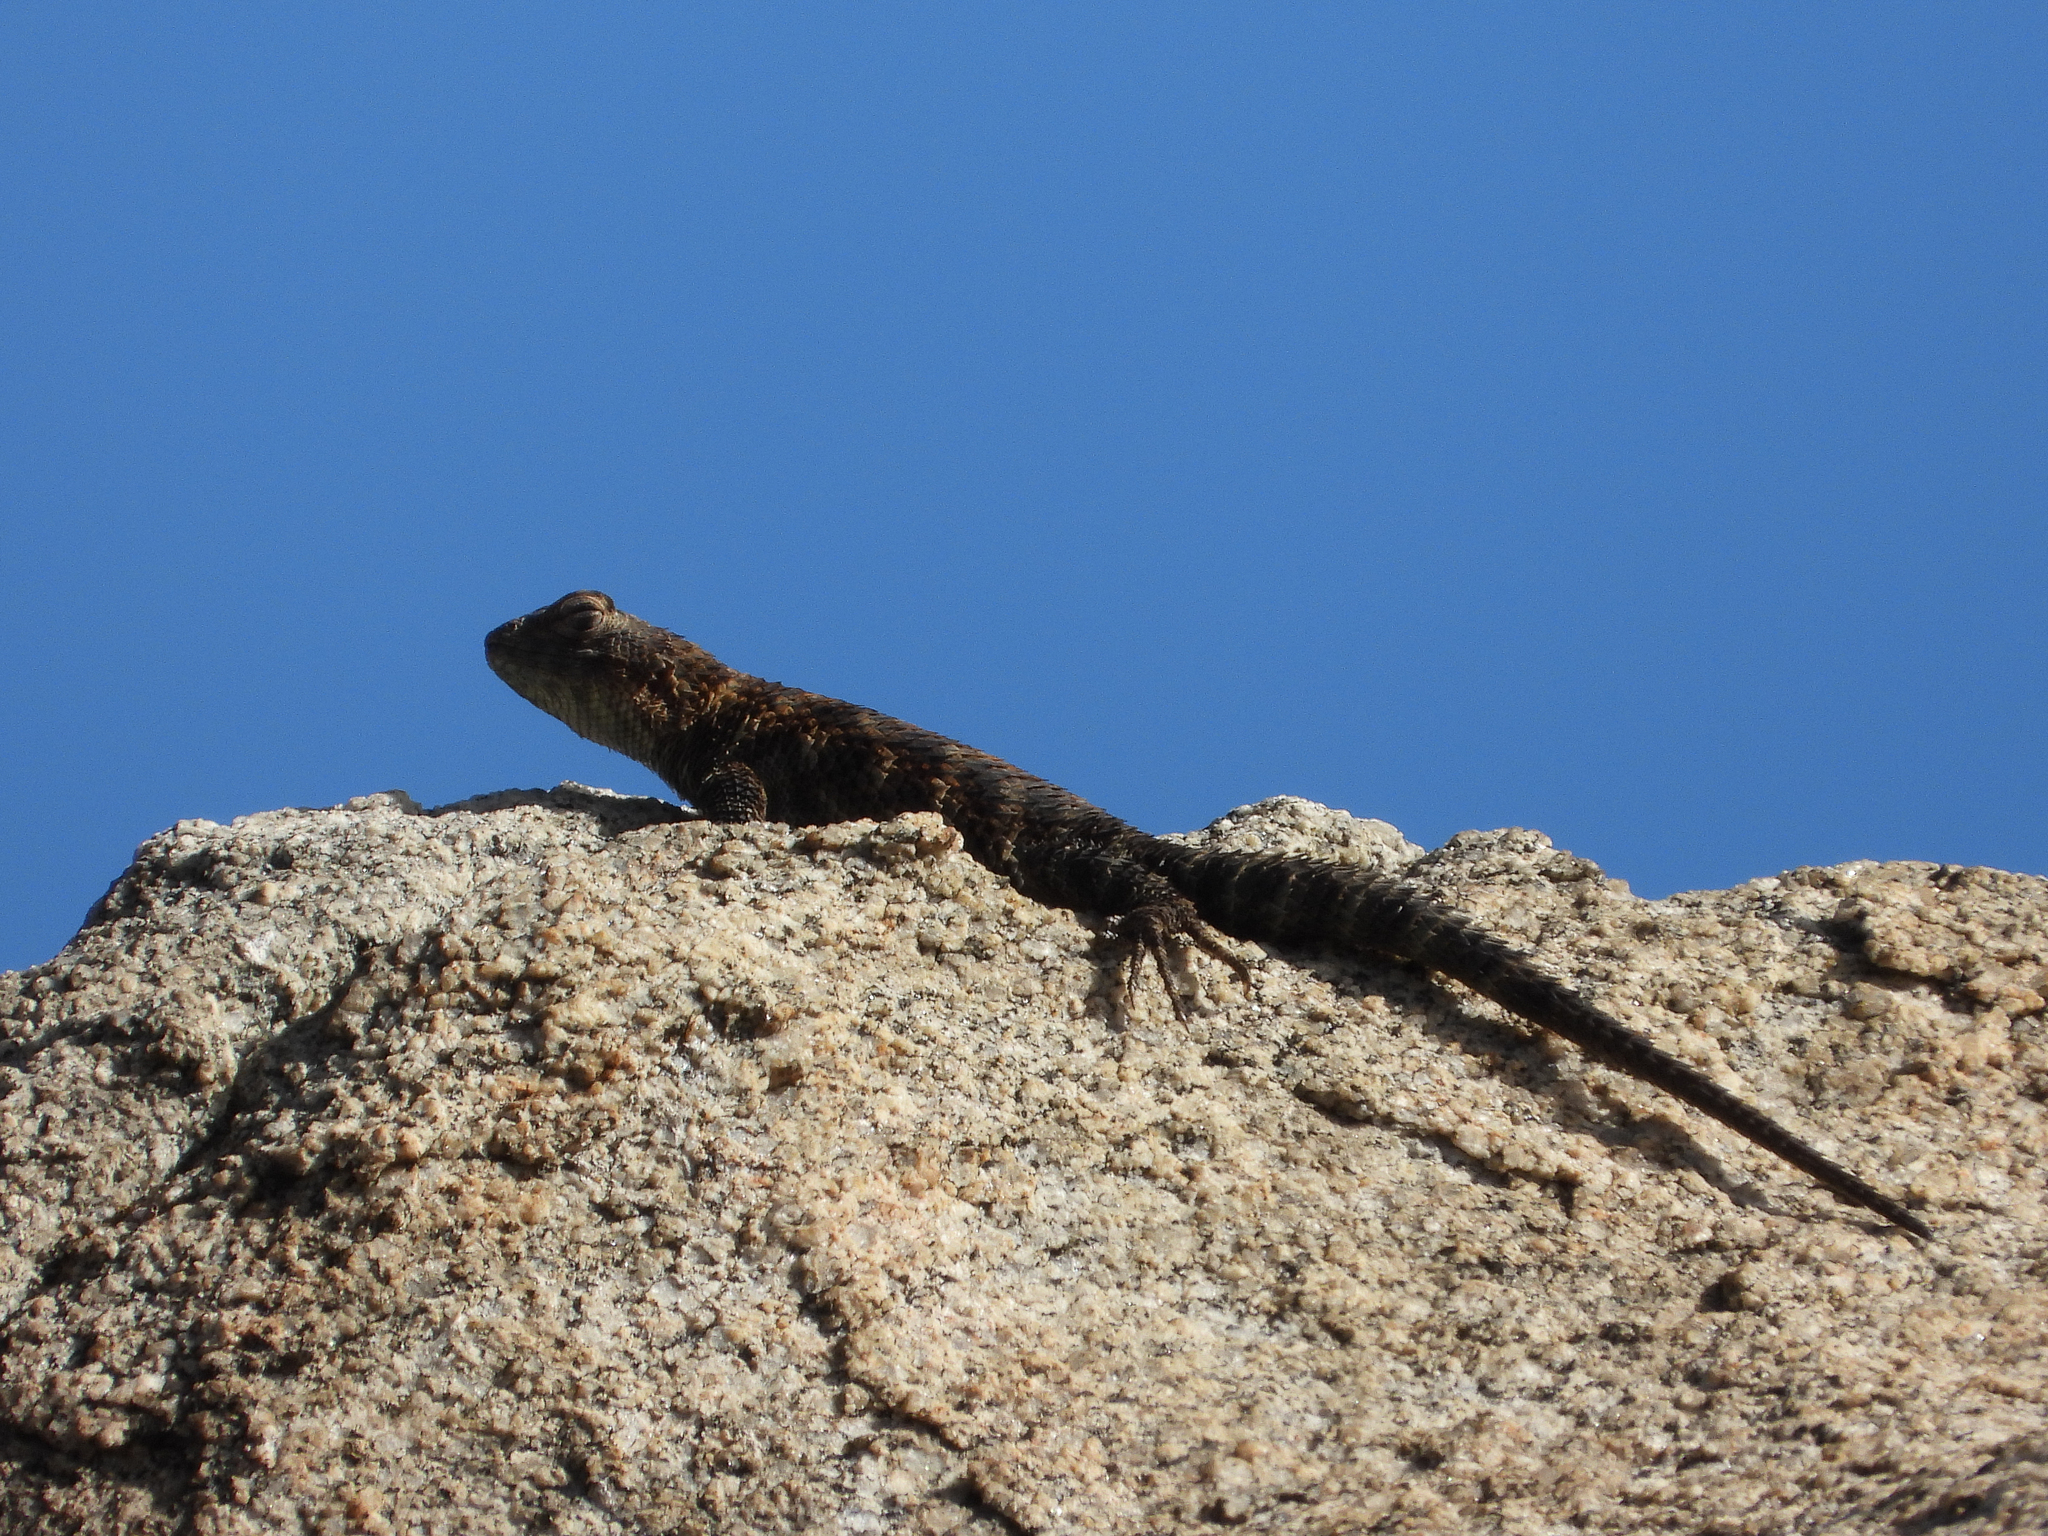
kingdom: Animalia
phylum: Chordata
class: Squamata
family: Phrynosomatidae
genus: Sceloporus
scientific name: Sceloporus orcutti
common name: Granite spiny lizard
